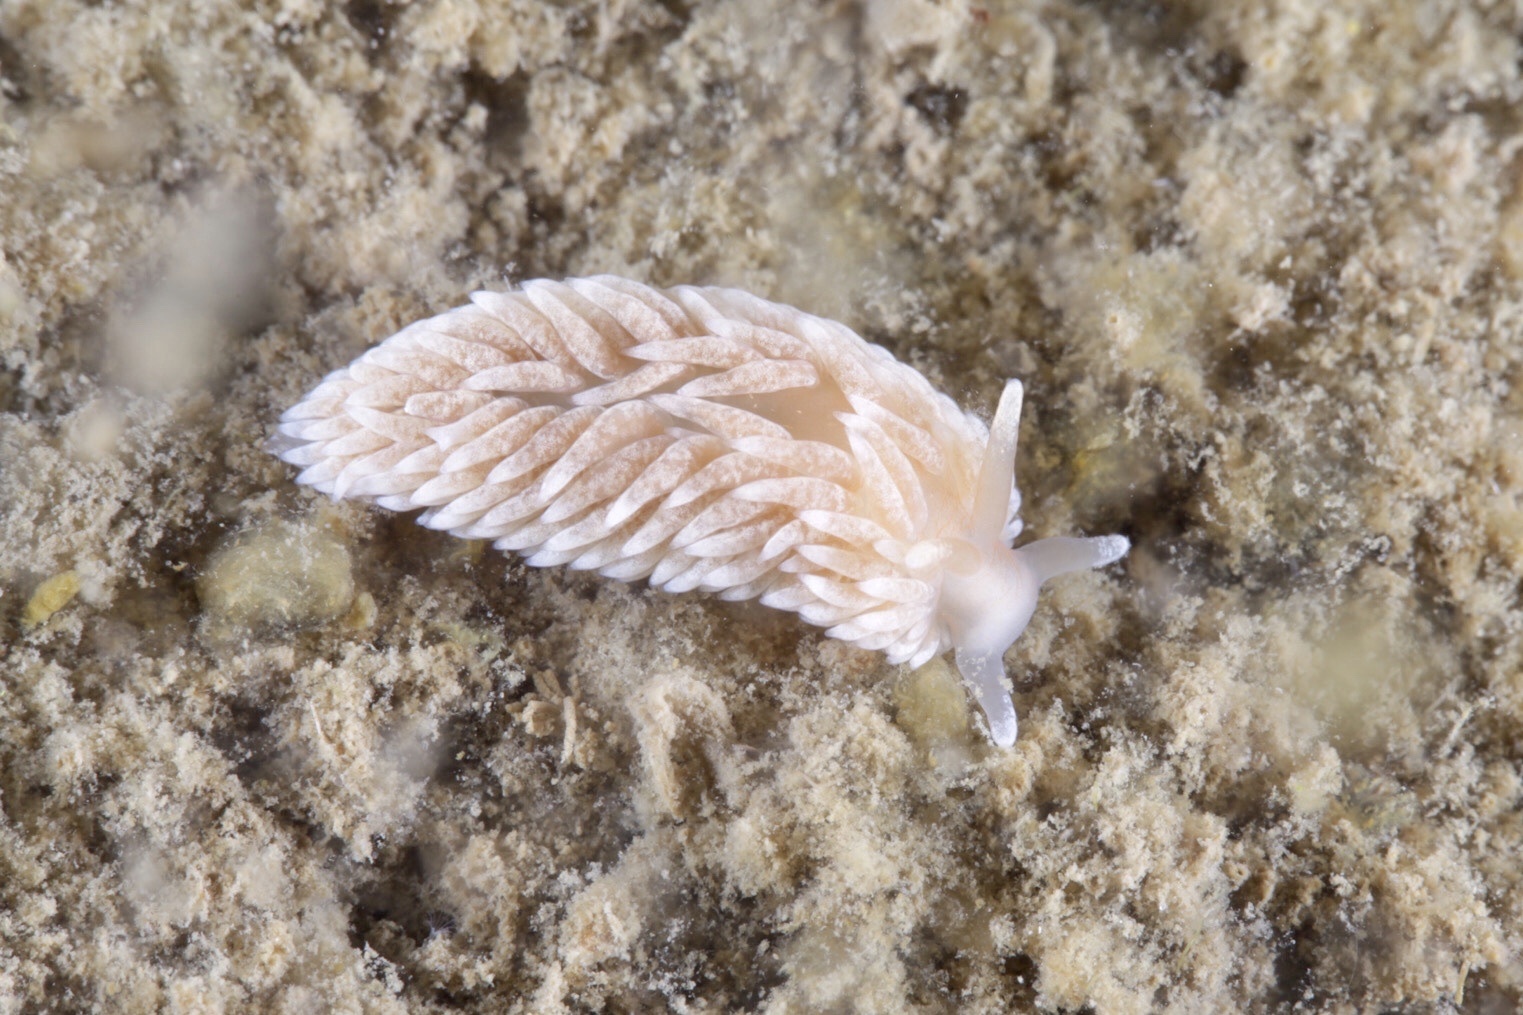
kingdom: Animalia
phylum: Mollusca
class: Gastropoda
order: Nudibranchia
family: Aeolidiidae
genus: Aeolidiella
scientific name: Aeolidiella glauca
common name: Orange-brown aeolid
